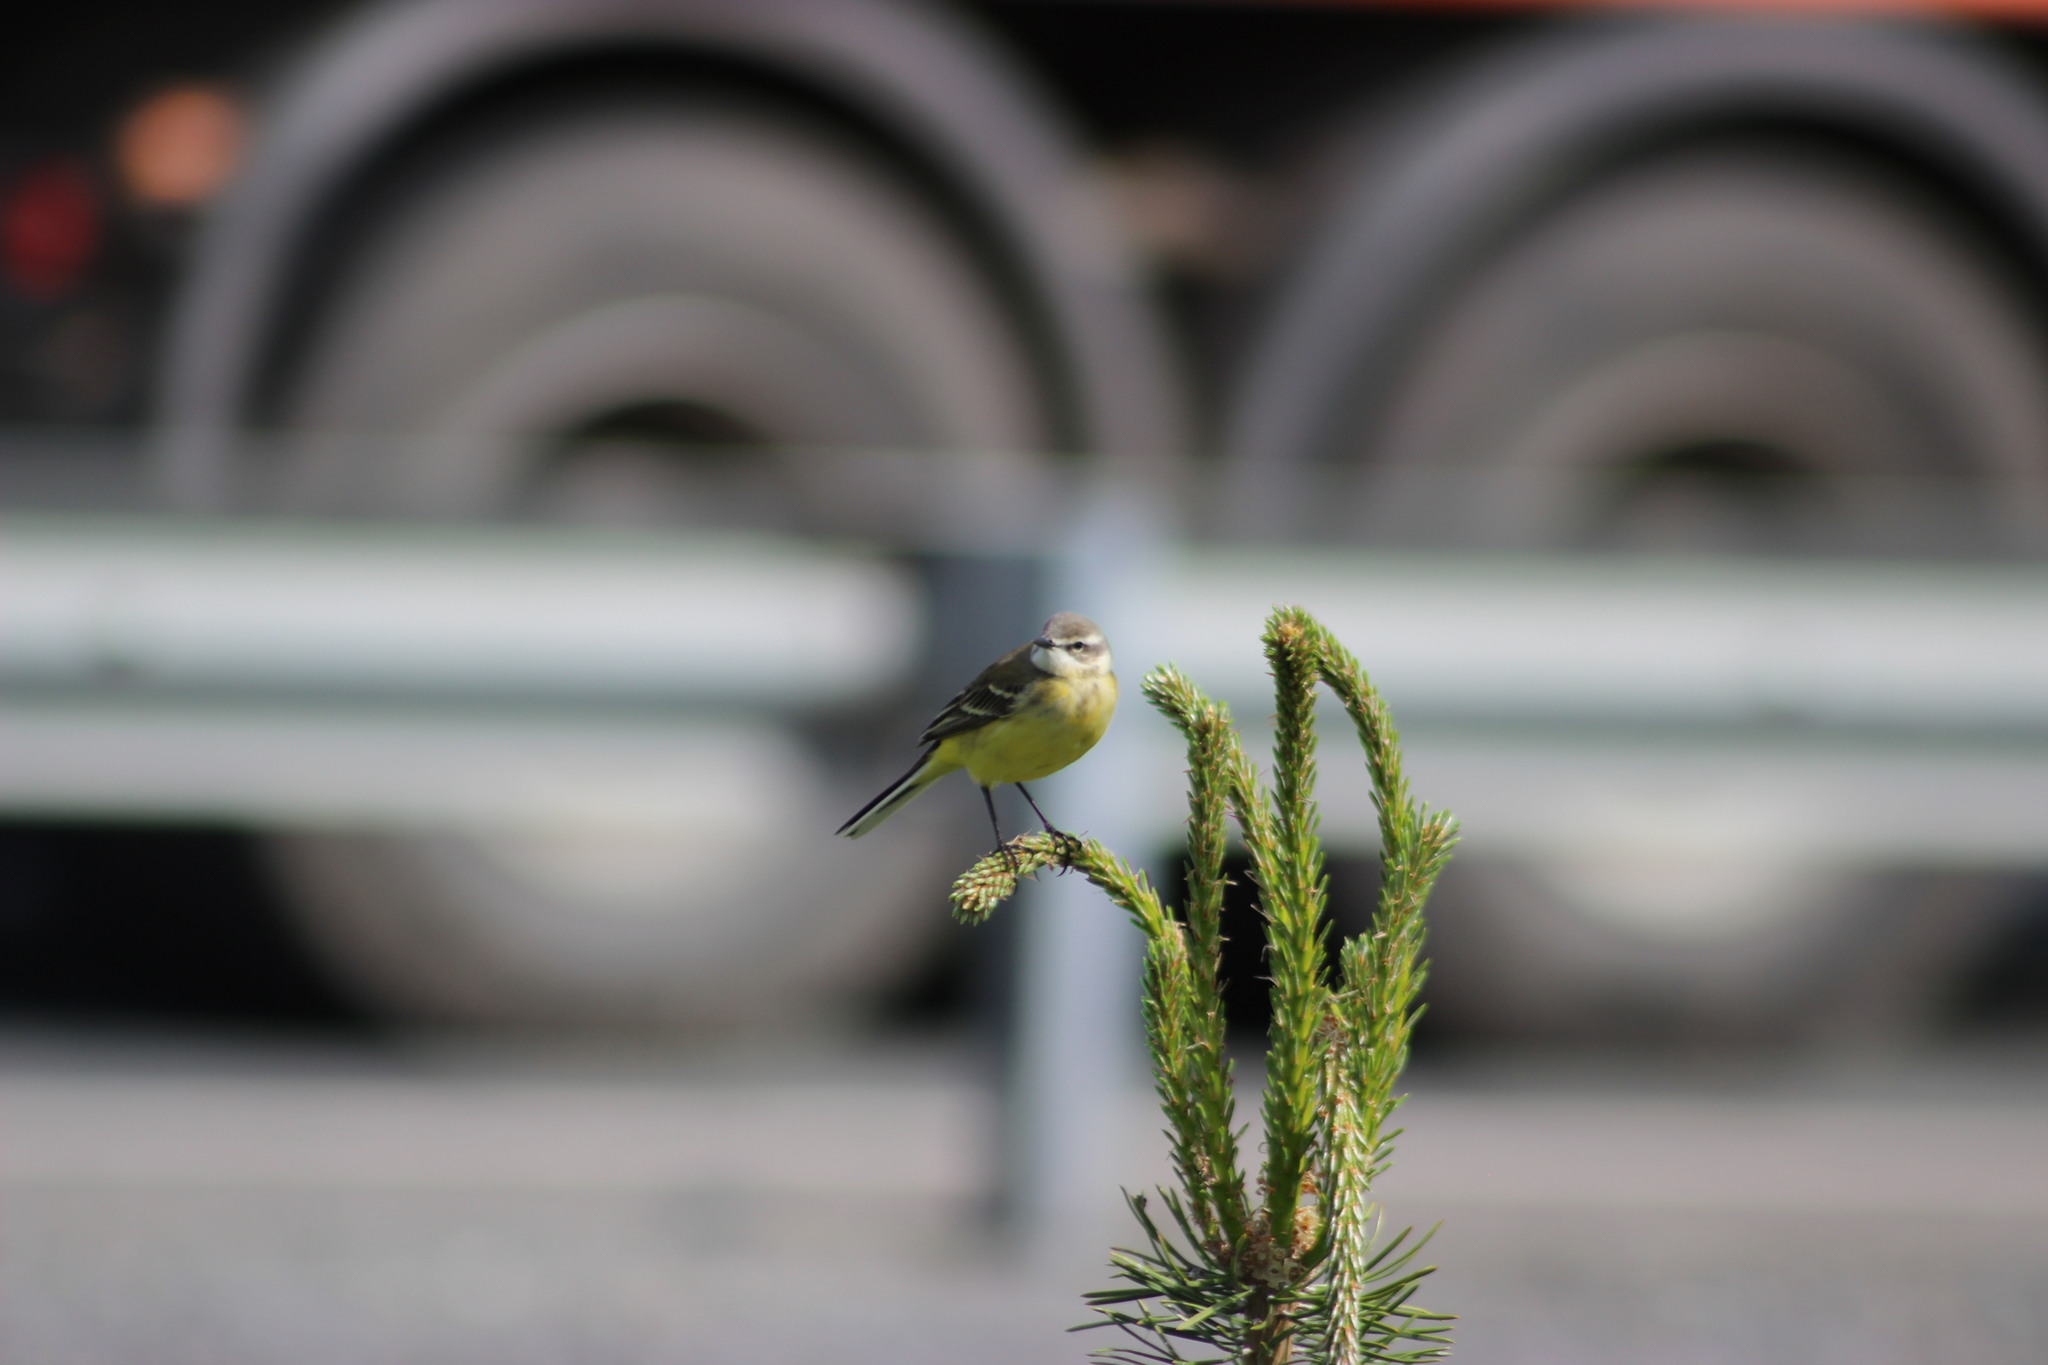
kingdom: Animalia
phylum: Chordata
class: Aves
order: Passeriformes
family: Motacillidae
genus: Motacilla
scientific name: Motacilla flava
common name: Western yellow wagtail
